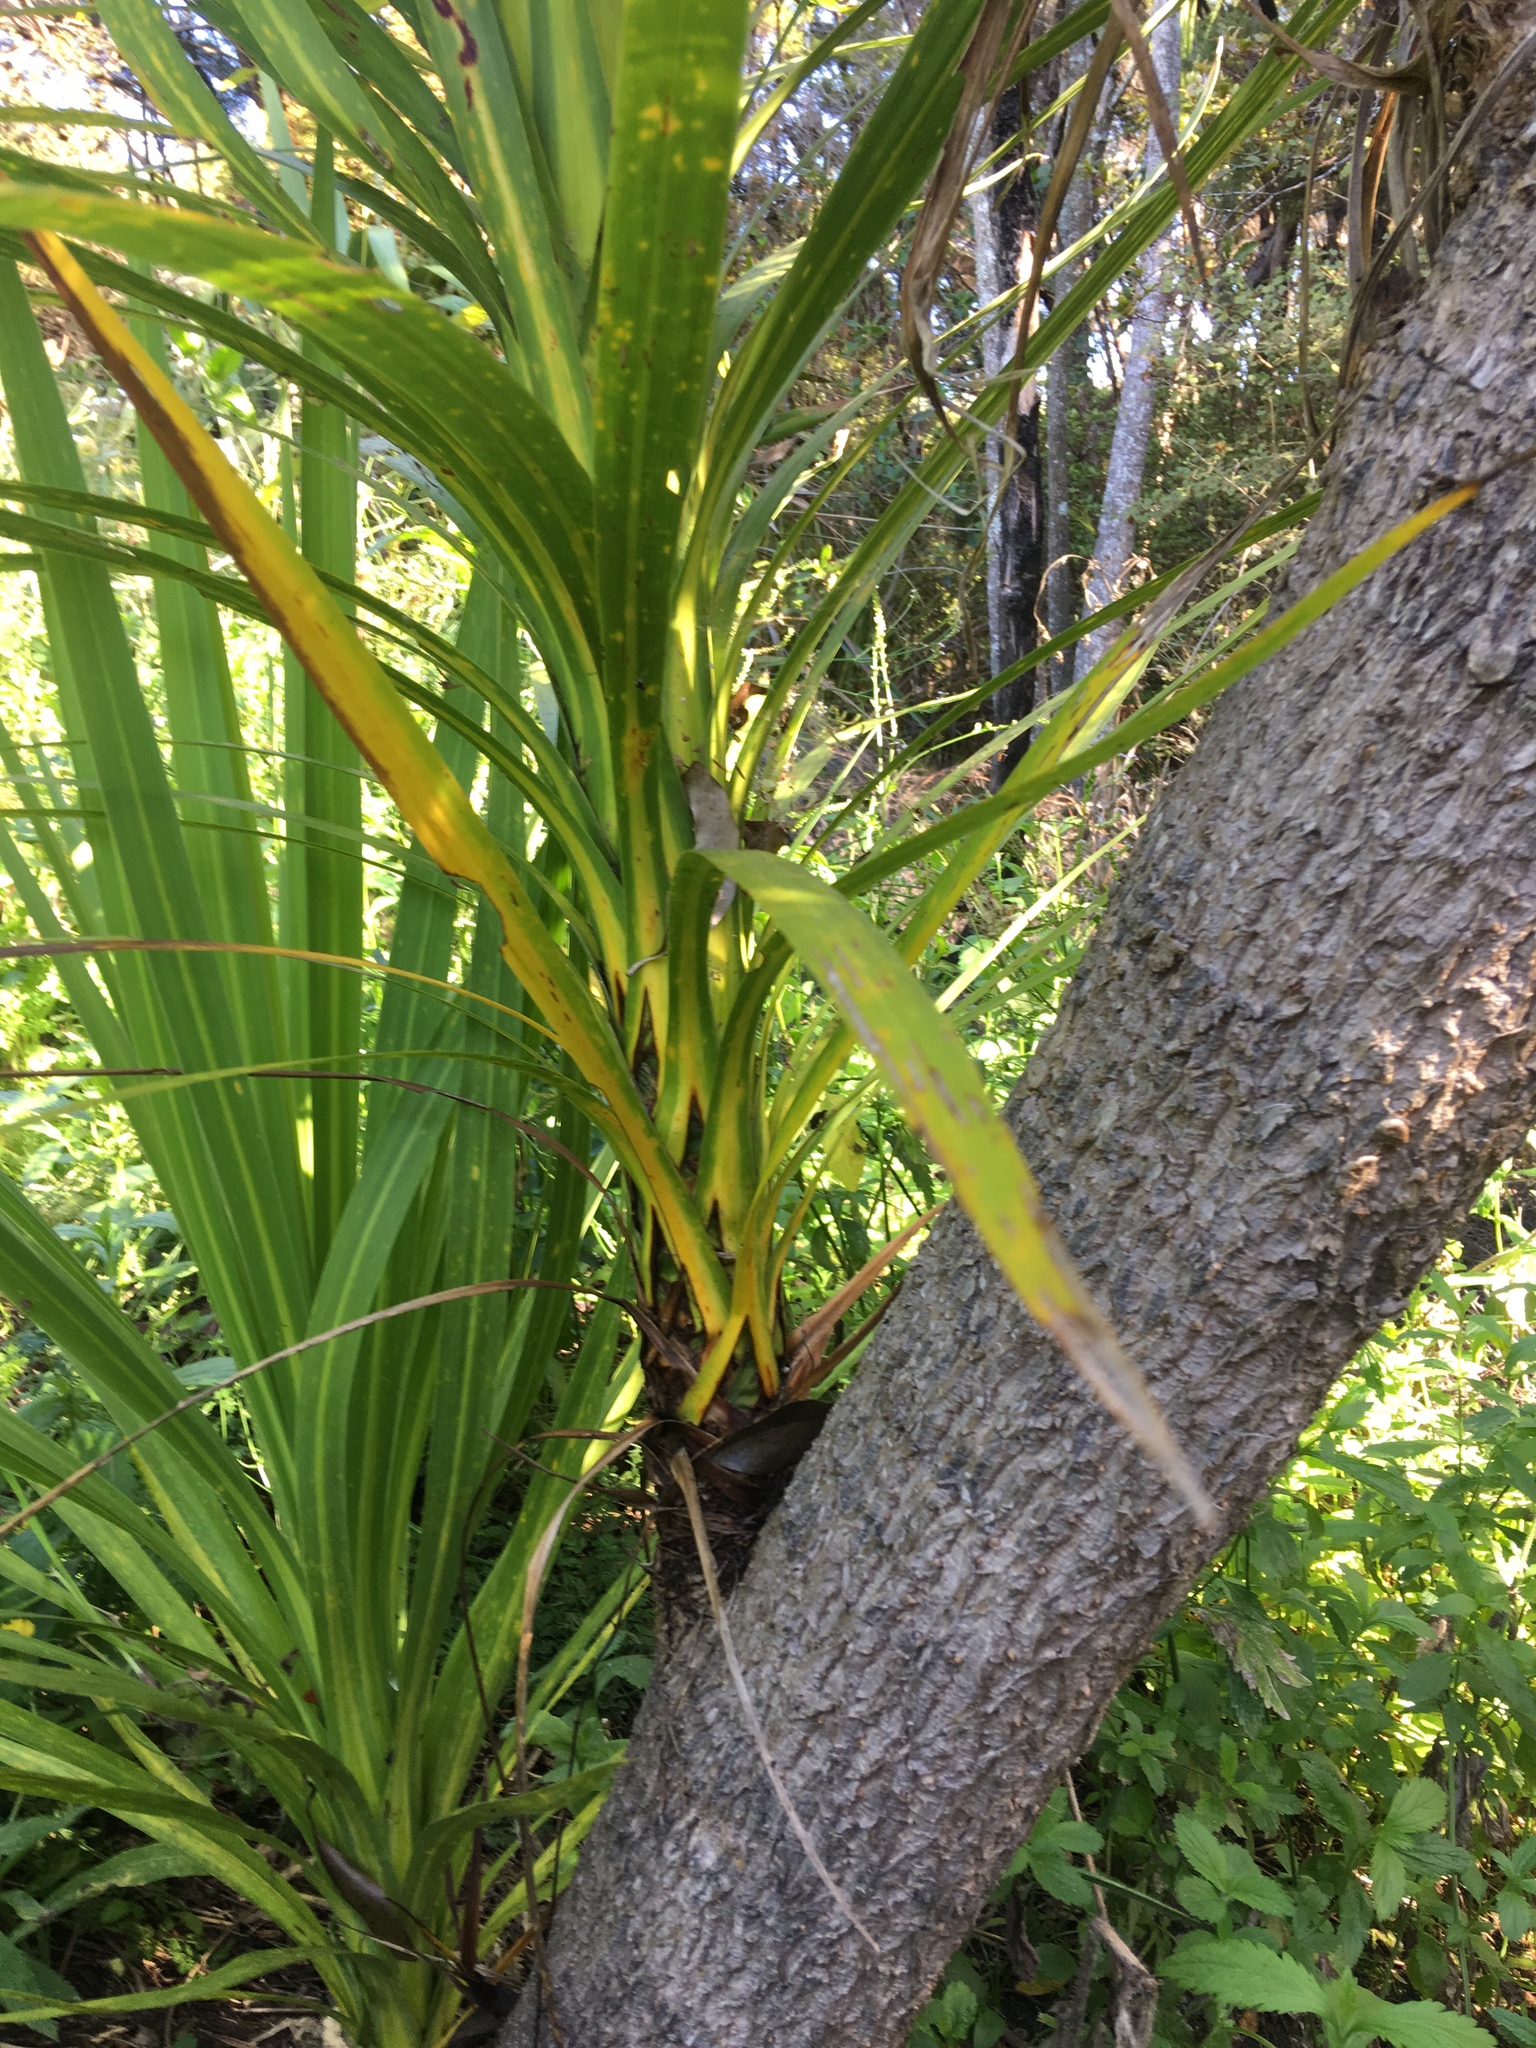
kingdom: Plantae
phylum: Tracheophyta
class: Liliopsida
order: Asparagales
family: Asparagaceae
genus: Cordyline
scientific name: Cordyline australis
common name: Cabbage-palm
